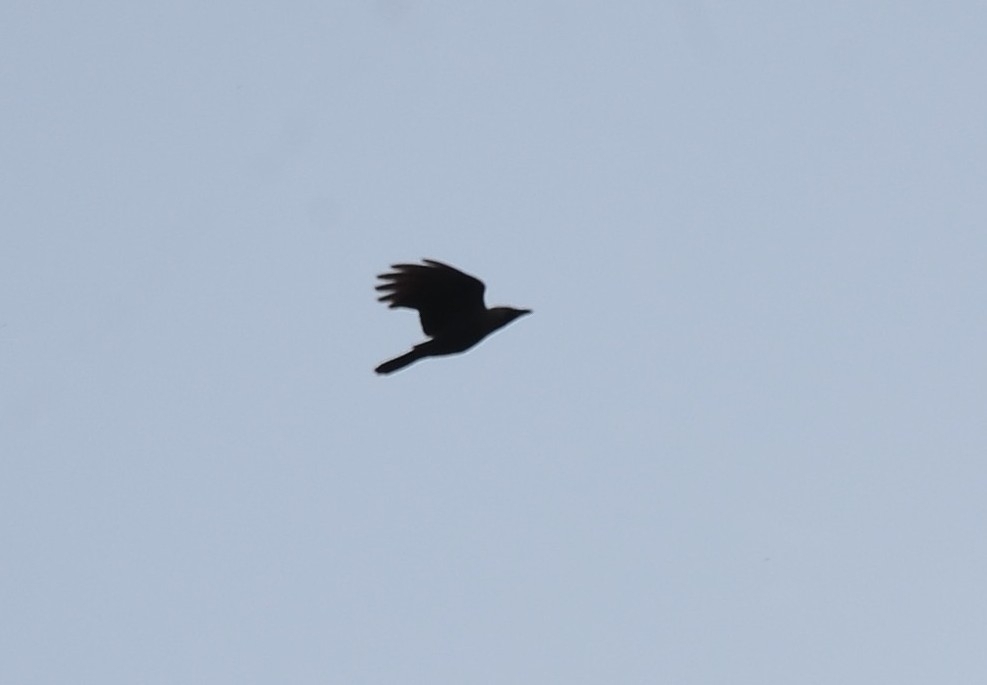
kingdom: Animalia
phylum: Chordata
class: Aves
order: Passeriformes
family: Corvidae
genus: Corvus
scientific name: Corvus splendens
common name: House crow
